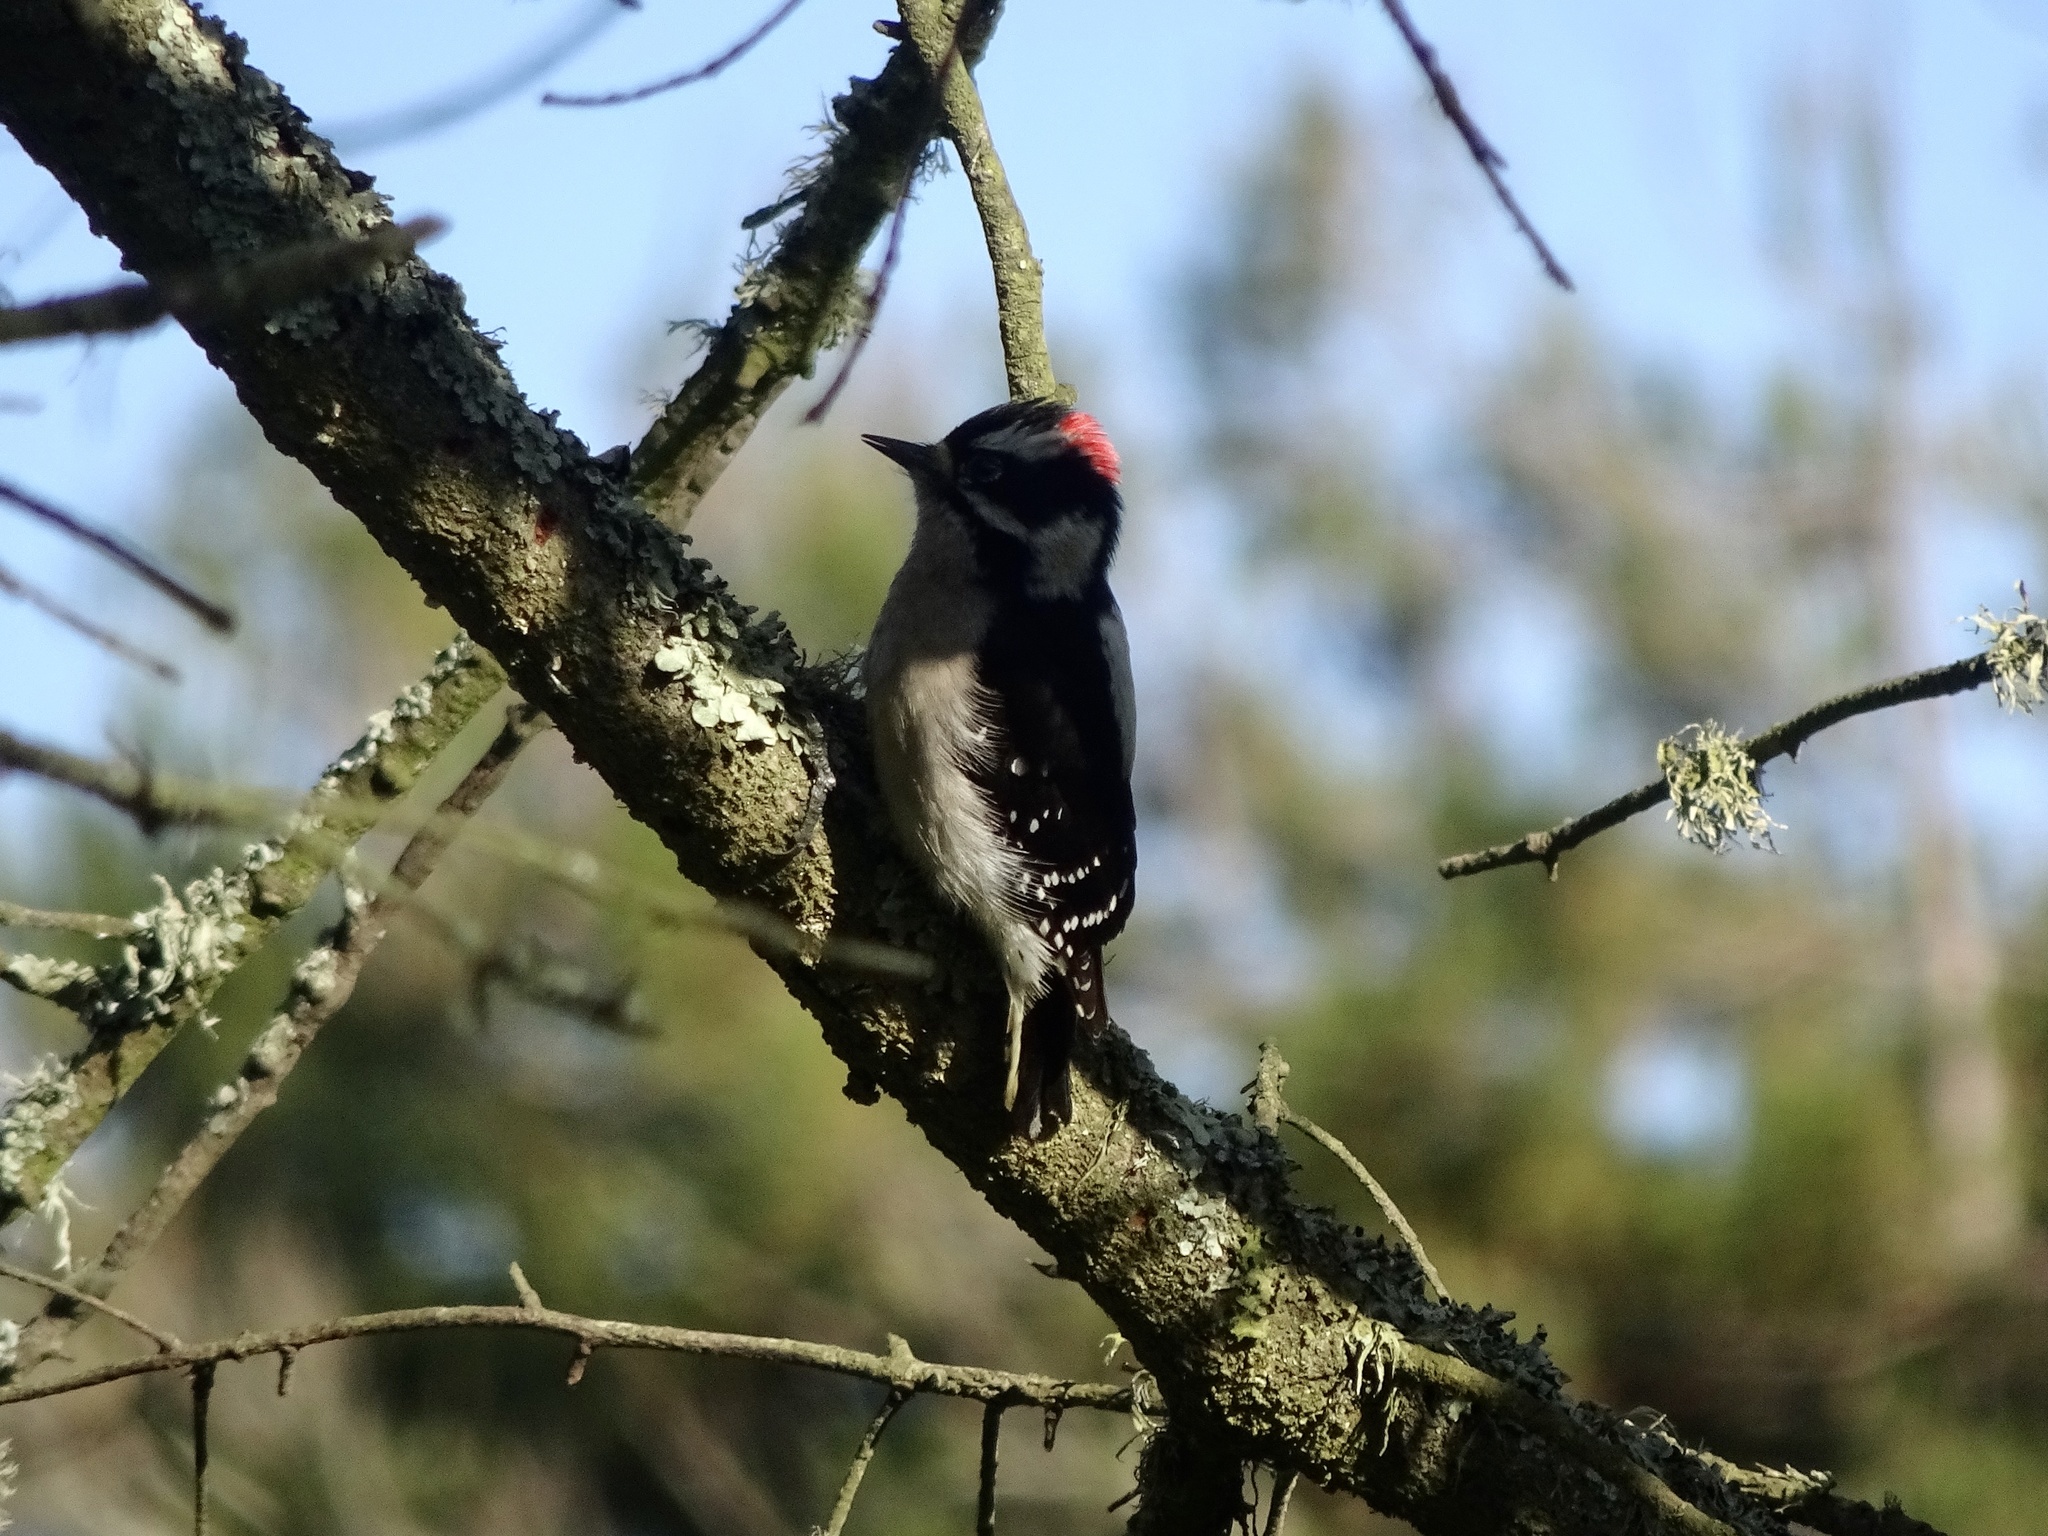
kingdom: Animalia
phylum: Chordata
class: Aves
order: Piciformes
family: Picidae
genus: Dryobates
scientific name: Dryobates pubescens
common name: Downy woodpecker
